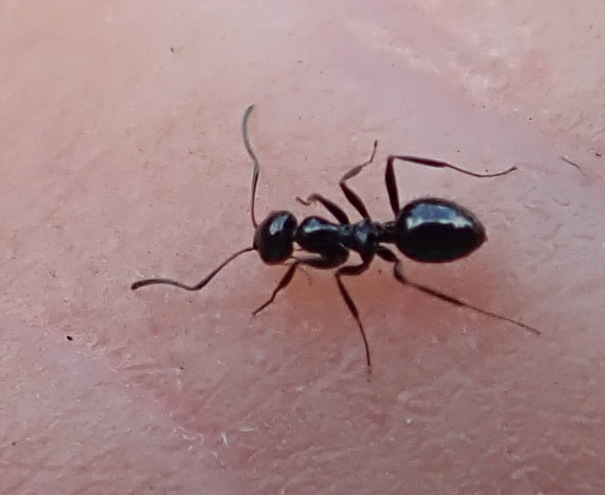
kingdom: Animalia
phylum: Arthropoda
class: Insecta
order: Hymenoptera
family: Formicidae
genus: Lepisiota
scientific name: Lepisiota capensis
